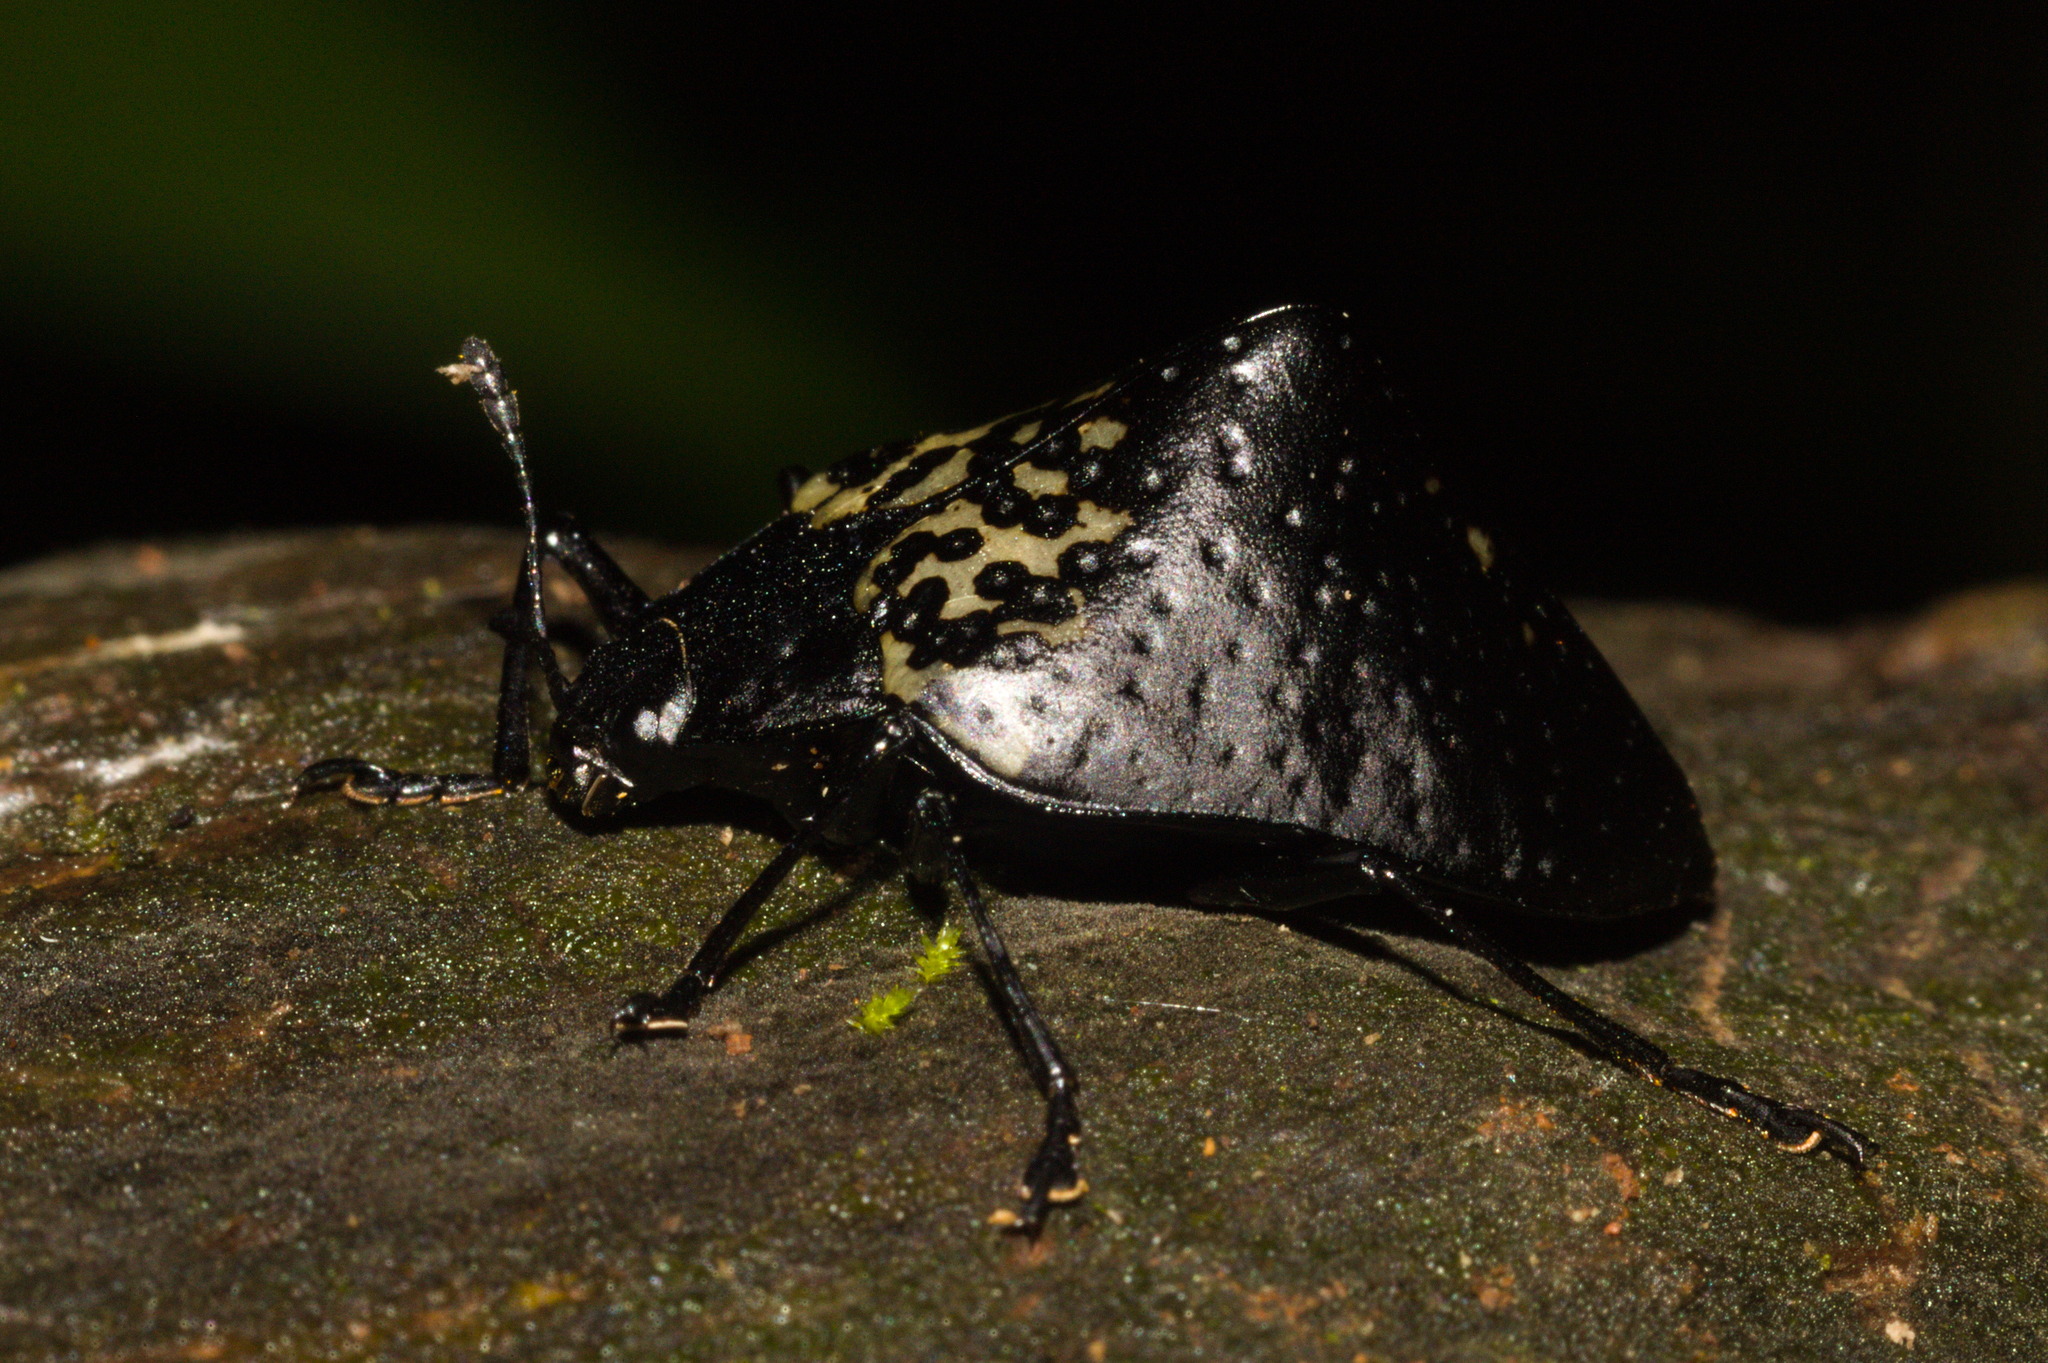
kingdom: Animalia
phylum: Arthropoda
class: Insecta
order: Coleoptera
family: Erotylidae
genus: Gibbifer
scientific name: Gibbifer
